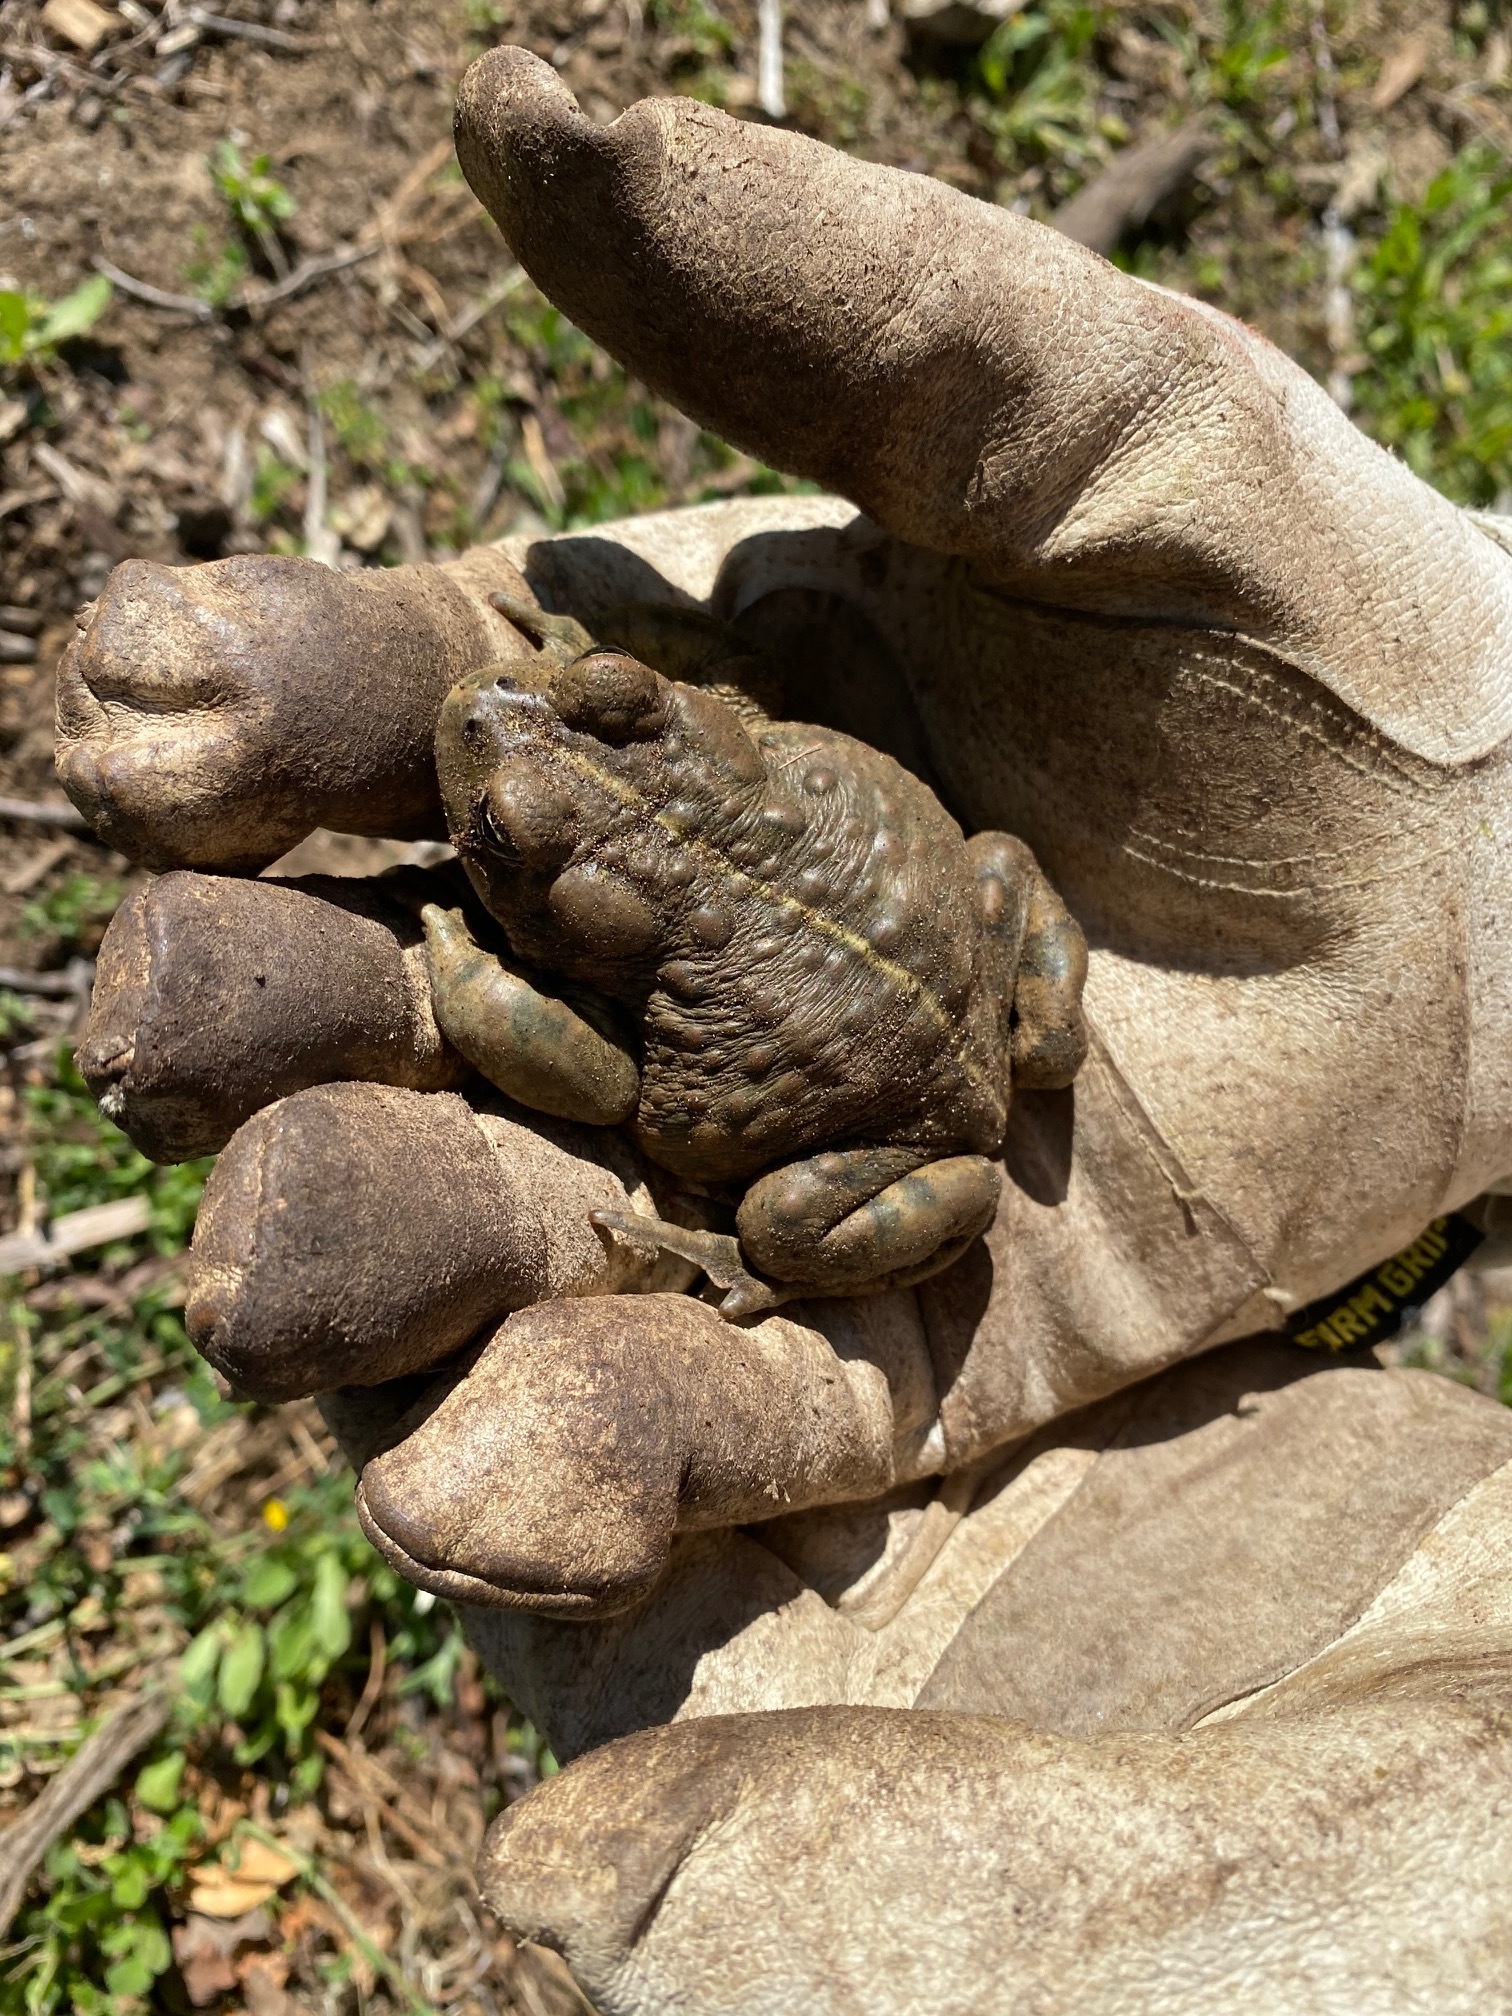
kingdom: Animalia
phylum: Chordata
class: Amphibia
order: Anura
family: Bufonidae
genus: Anaxyrus
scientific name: Anaxyrus boreas
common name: Western toad
